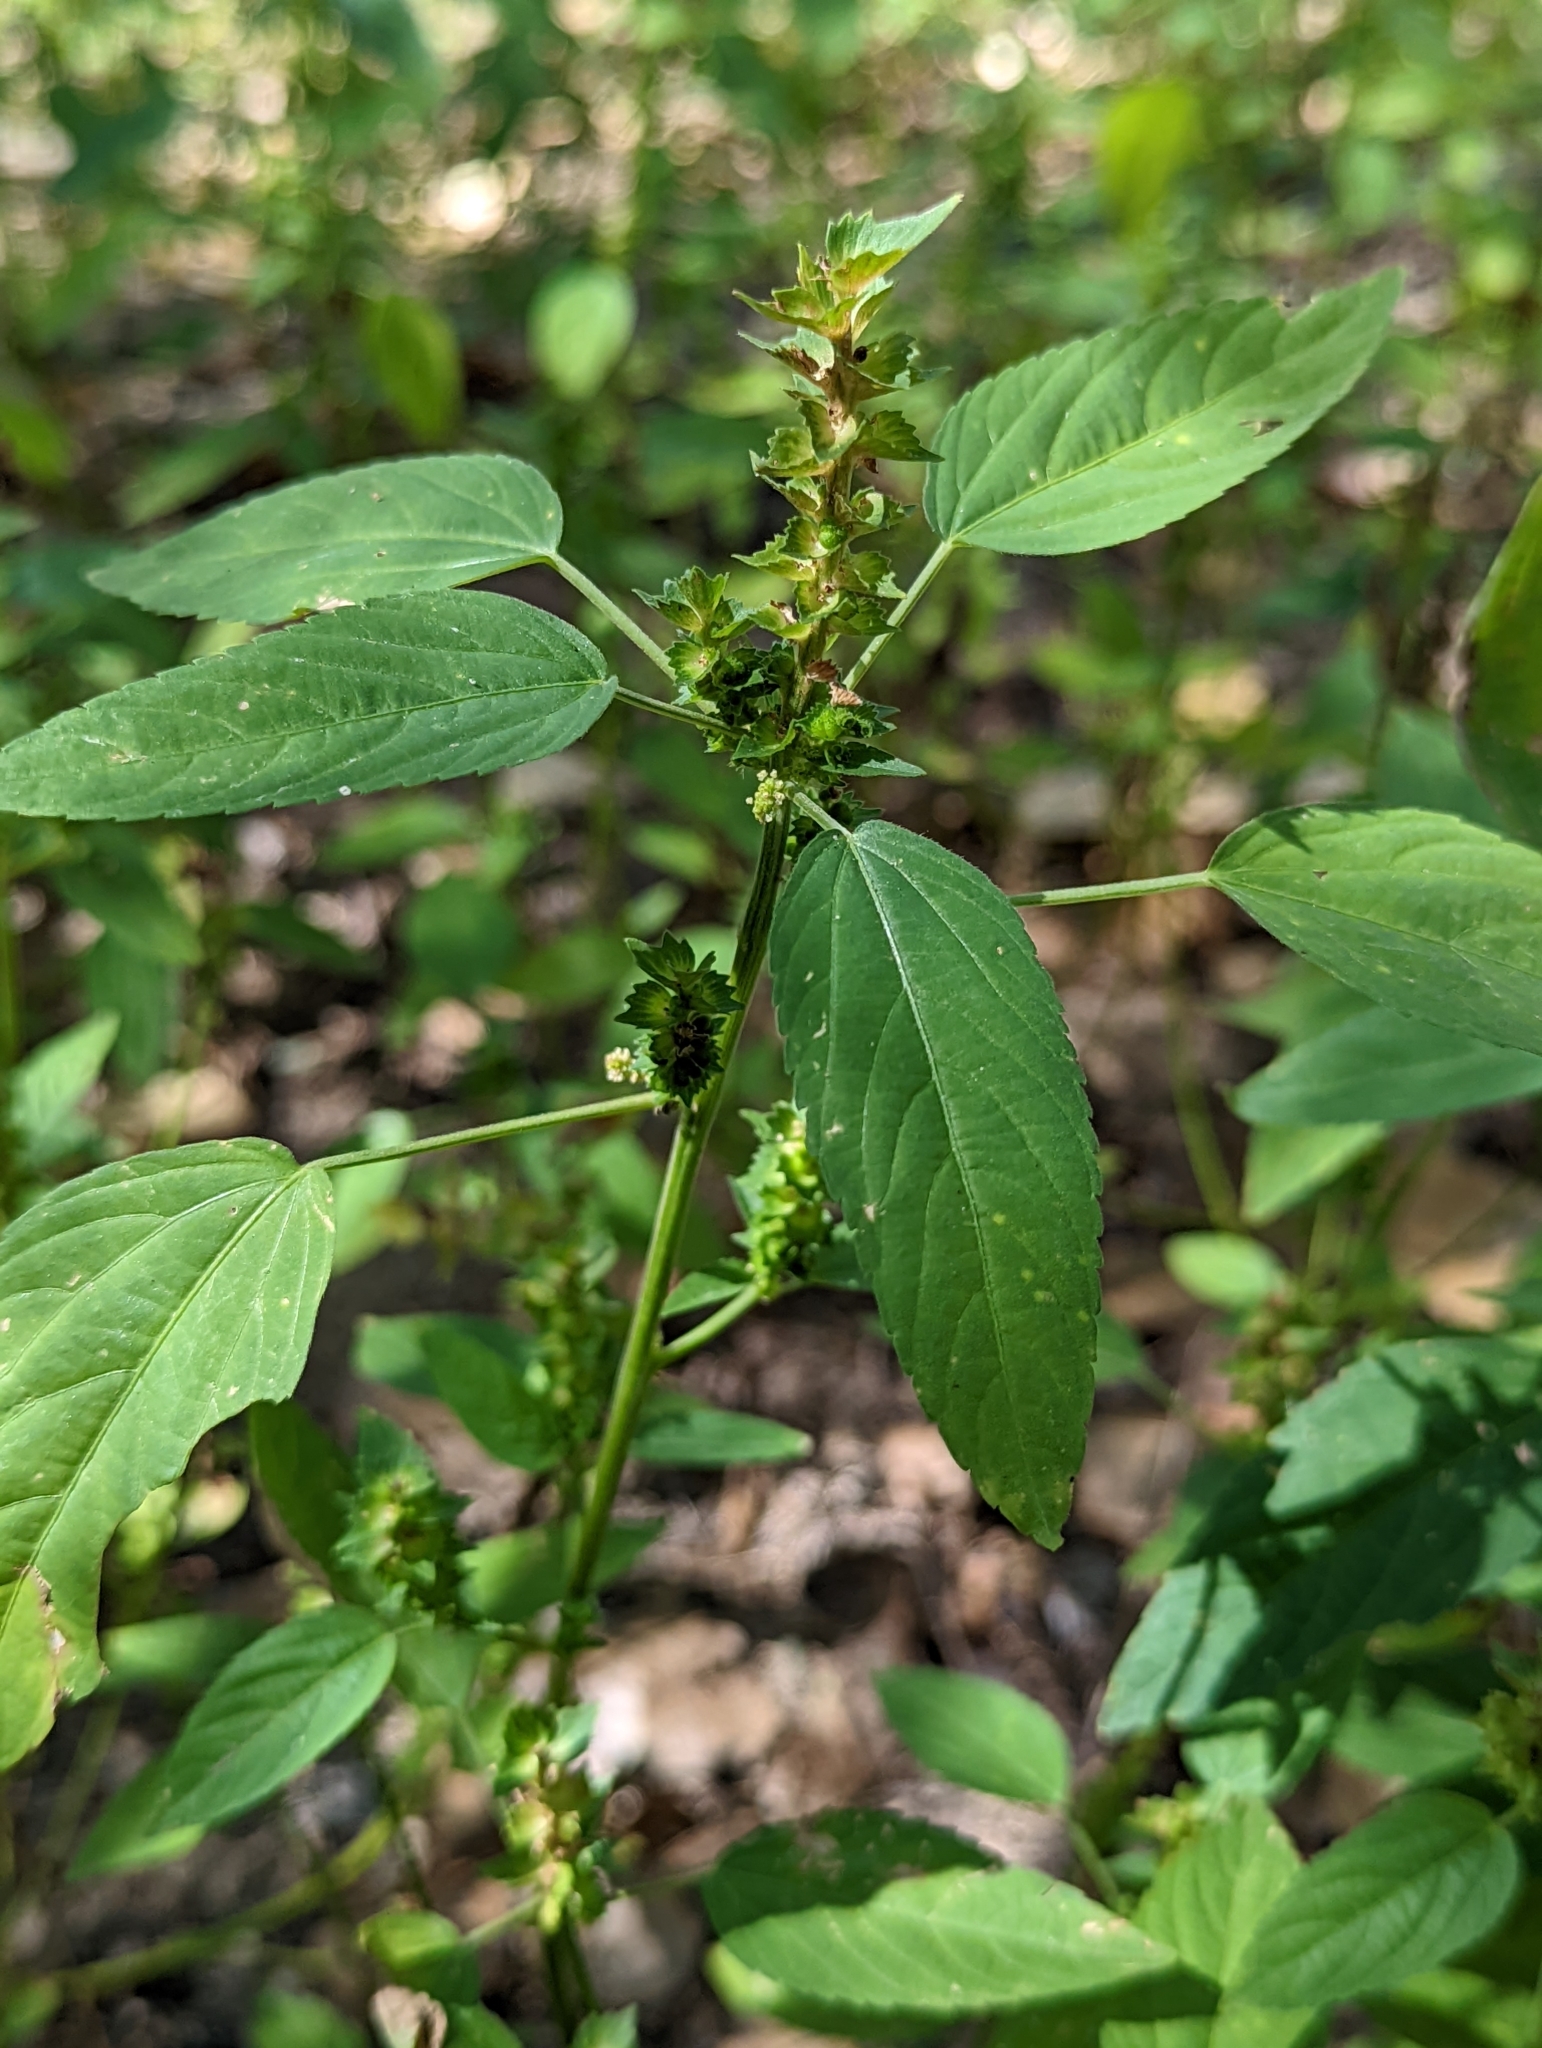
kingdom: Plantae
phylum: Tracheophyta
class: Magnoliopsida
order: Malpighiales
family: Euphorbiaceae
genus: Acalypha
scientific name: Acalypha neomexicana
